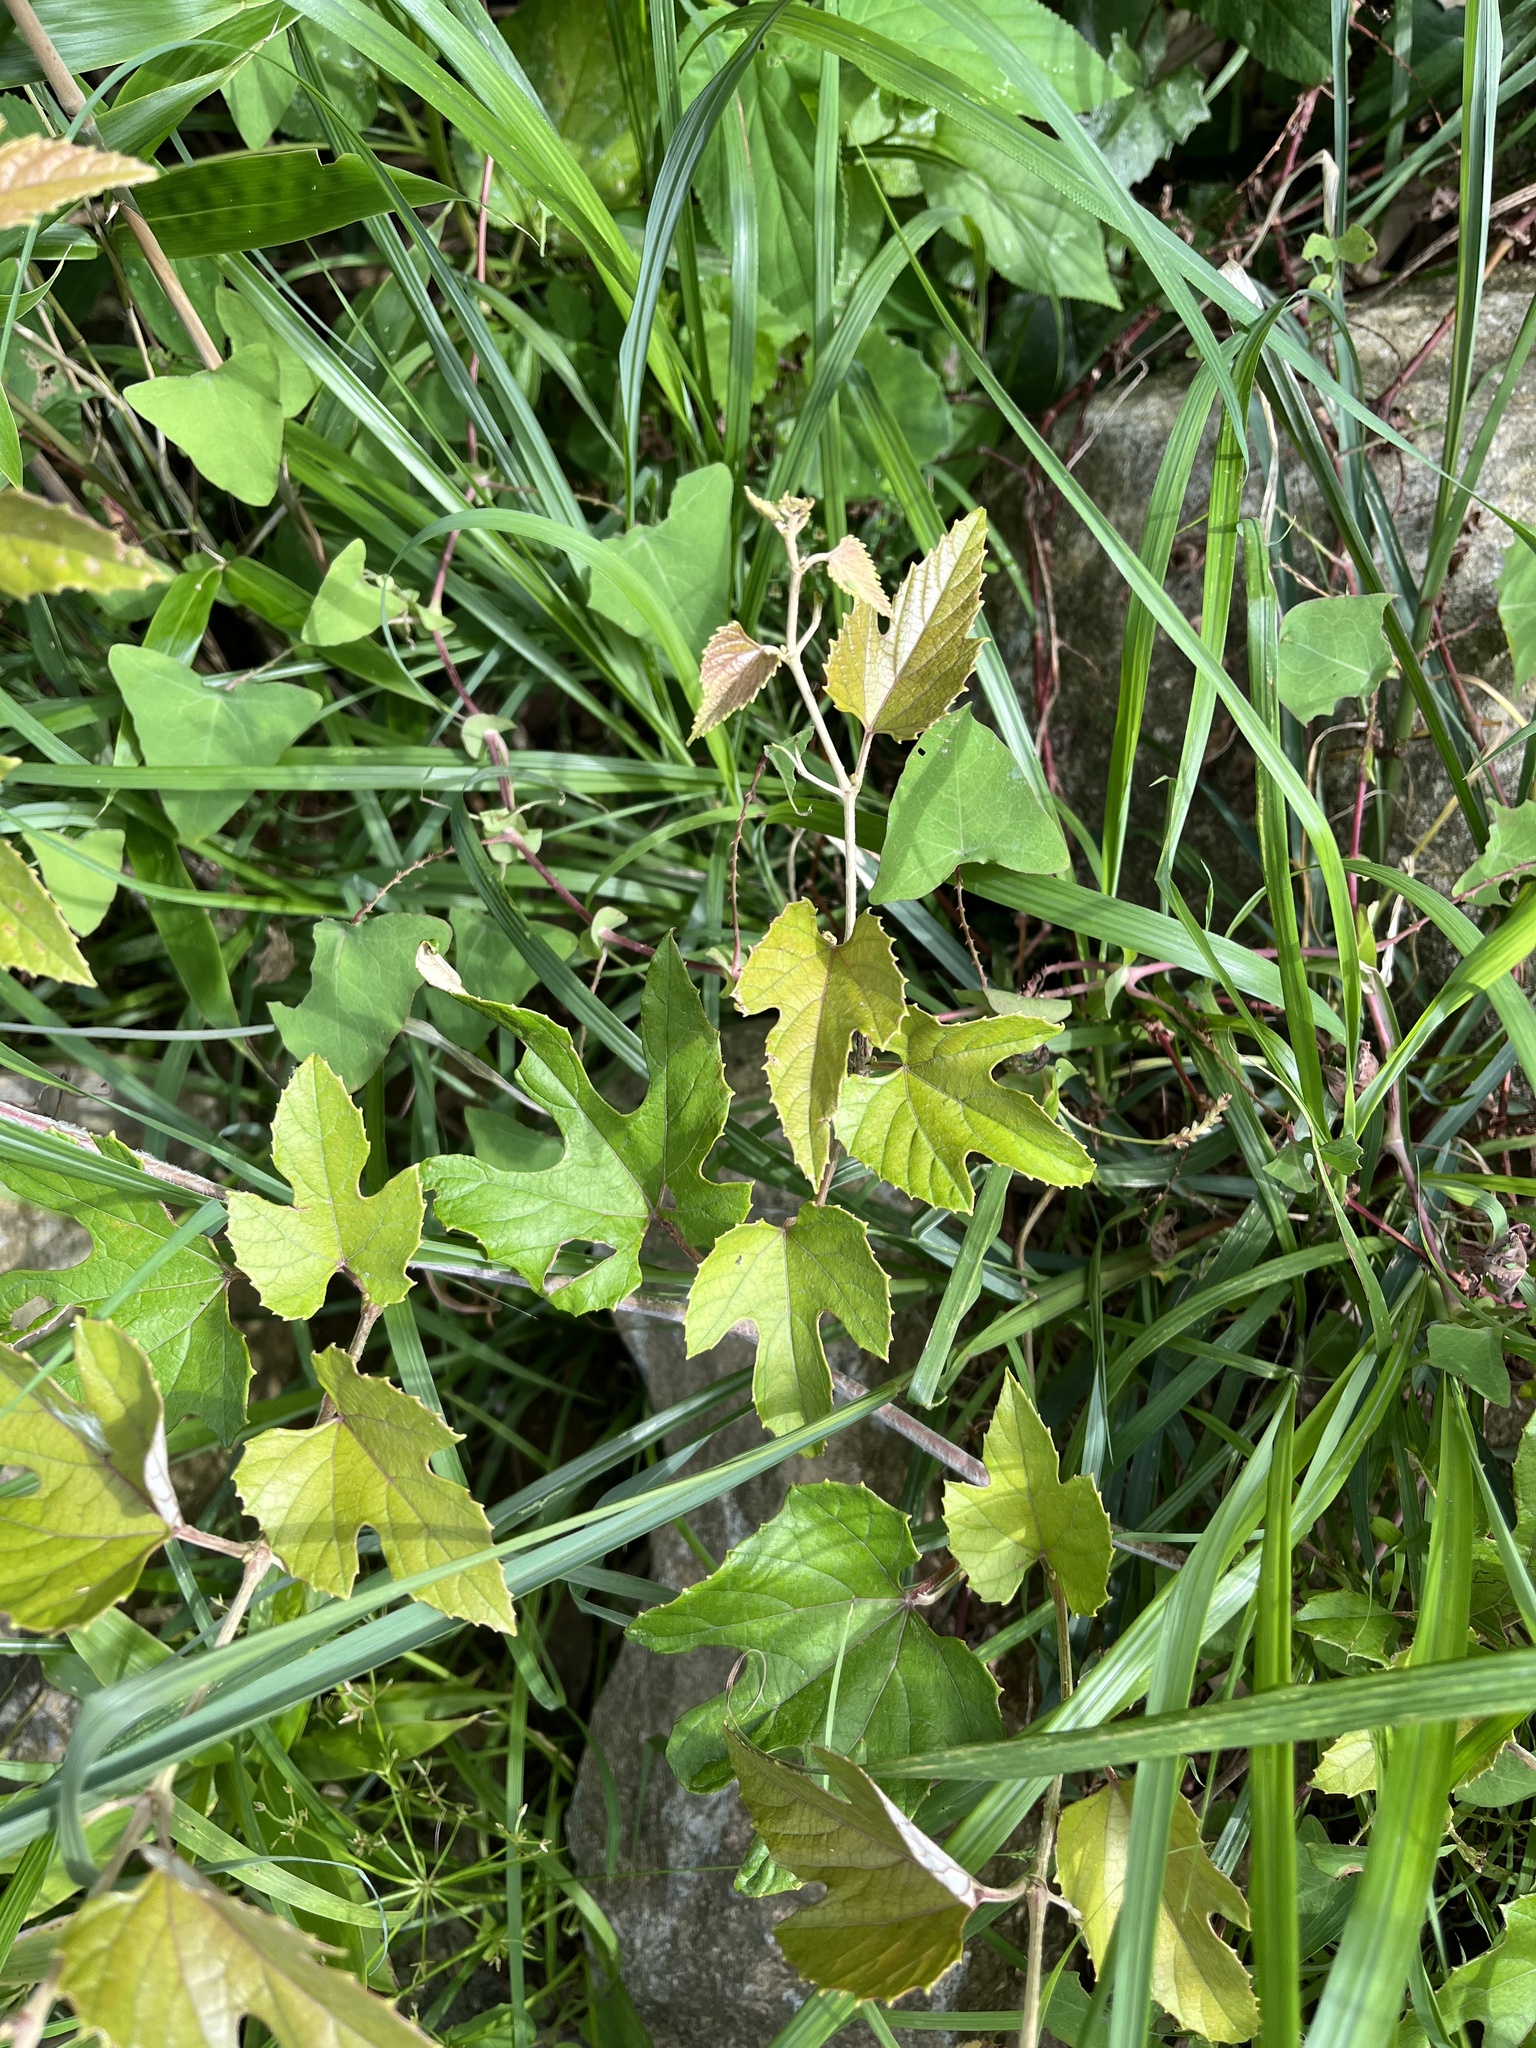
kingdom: Plantae
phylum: Tracheophyta
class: Magnoliopsida
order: Vitales
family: Vitaceae
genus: Vitis
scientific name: Vitis heyneana
